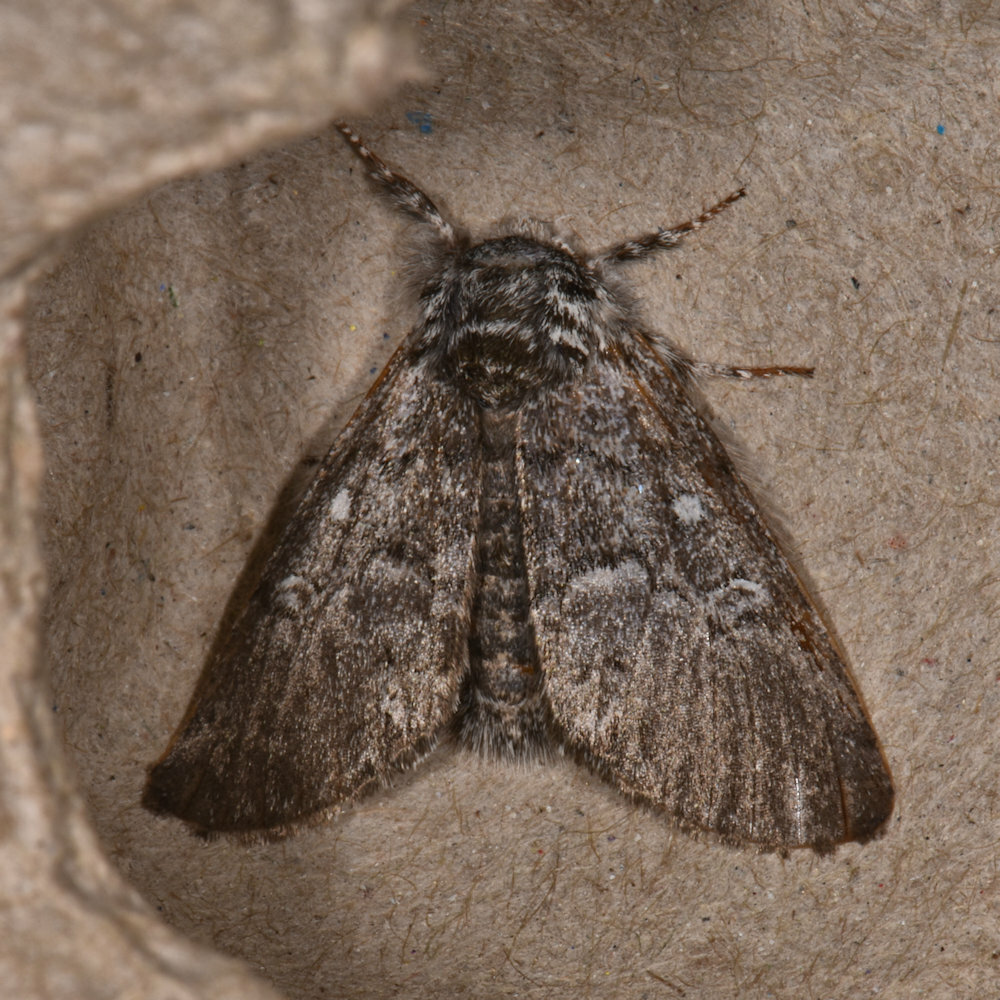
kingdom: Animalia
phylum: Arthropoda
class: Insecta
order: Lepidoptera
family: Noctuidae
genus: Colocasia
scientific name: Colocasia propinquilinea
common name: Close-banded demas
